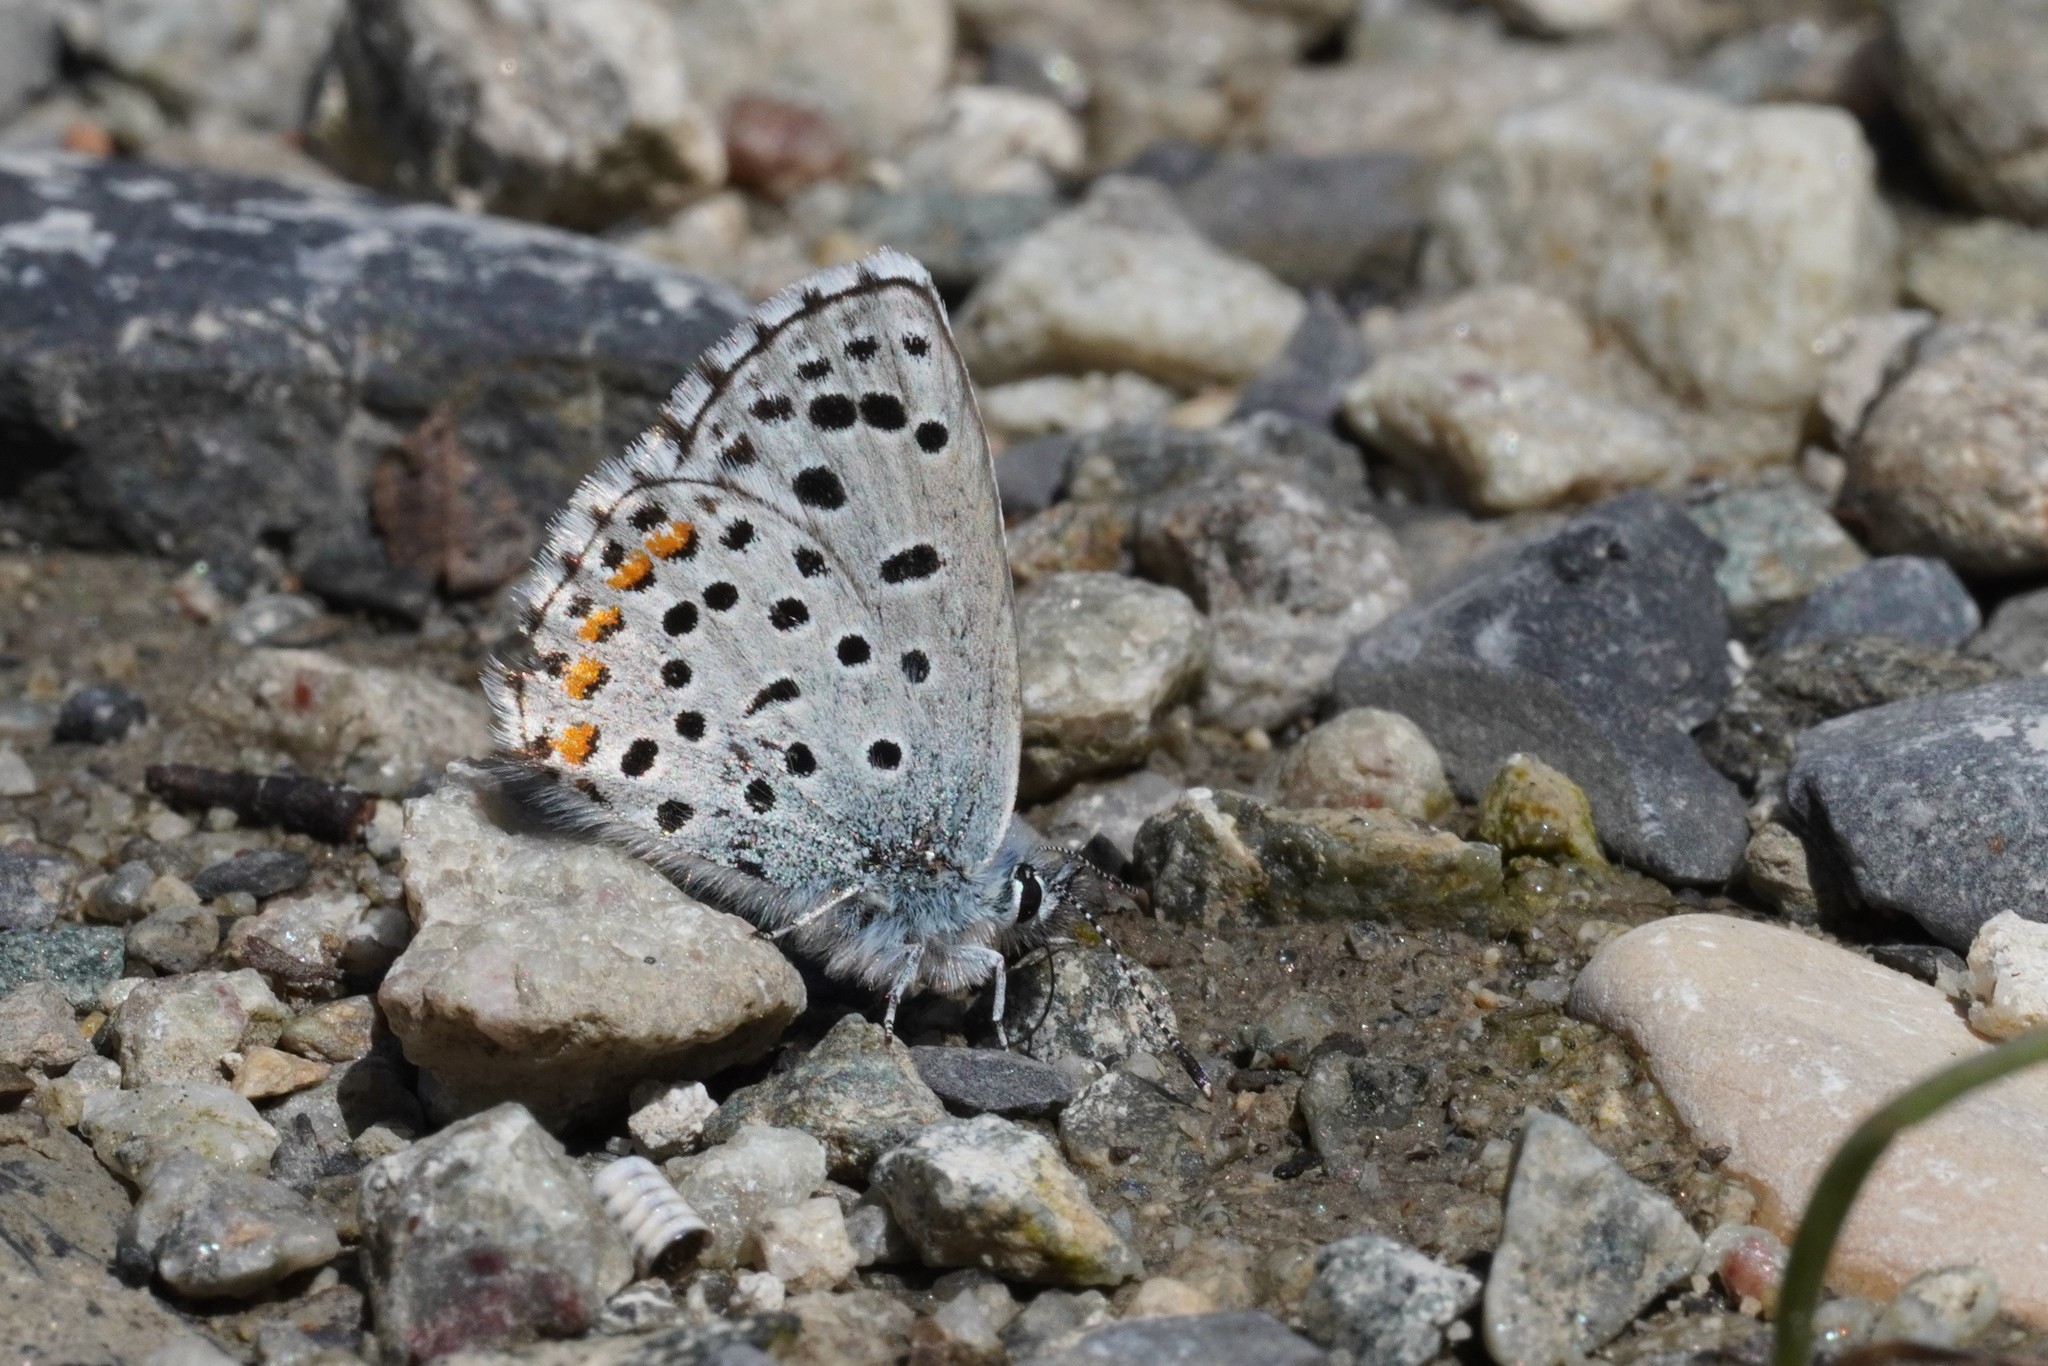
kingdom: Animalia
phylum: Arthropoda
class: Insecta
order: Lepidoptera
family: Lycaenidae
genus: Pseudophilotes
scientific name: Pseudophilotes baton
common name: Baton blue
